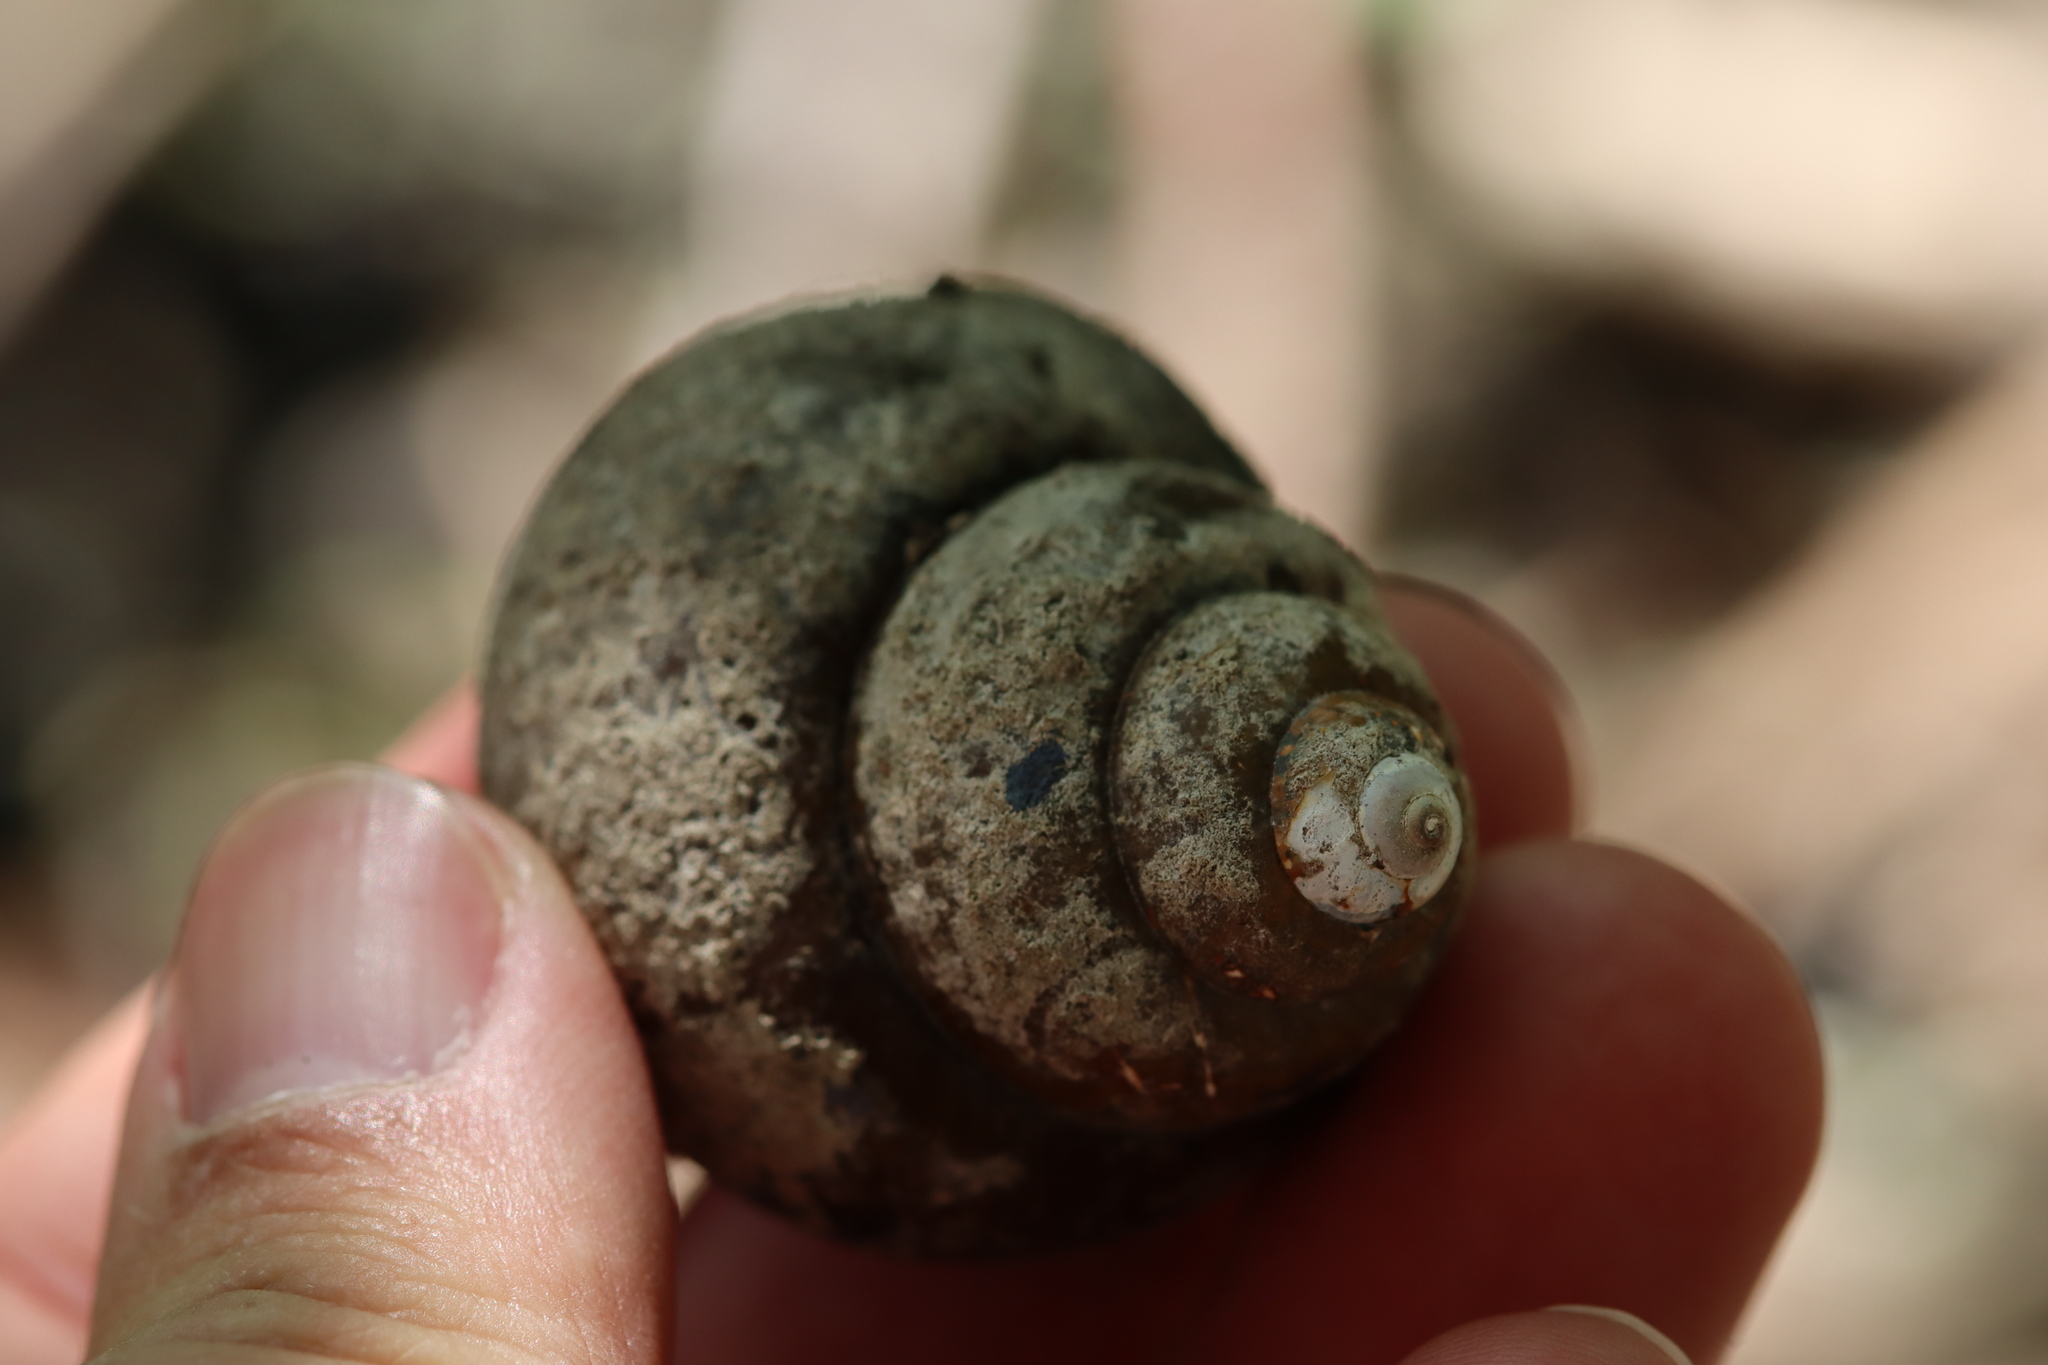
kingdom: Animalia
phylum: Mollusca
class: Gastropoda
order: Architaenioglossa
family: Viviparidae
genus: Cipangopaludina
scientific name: Cipangopaludina chinensis
